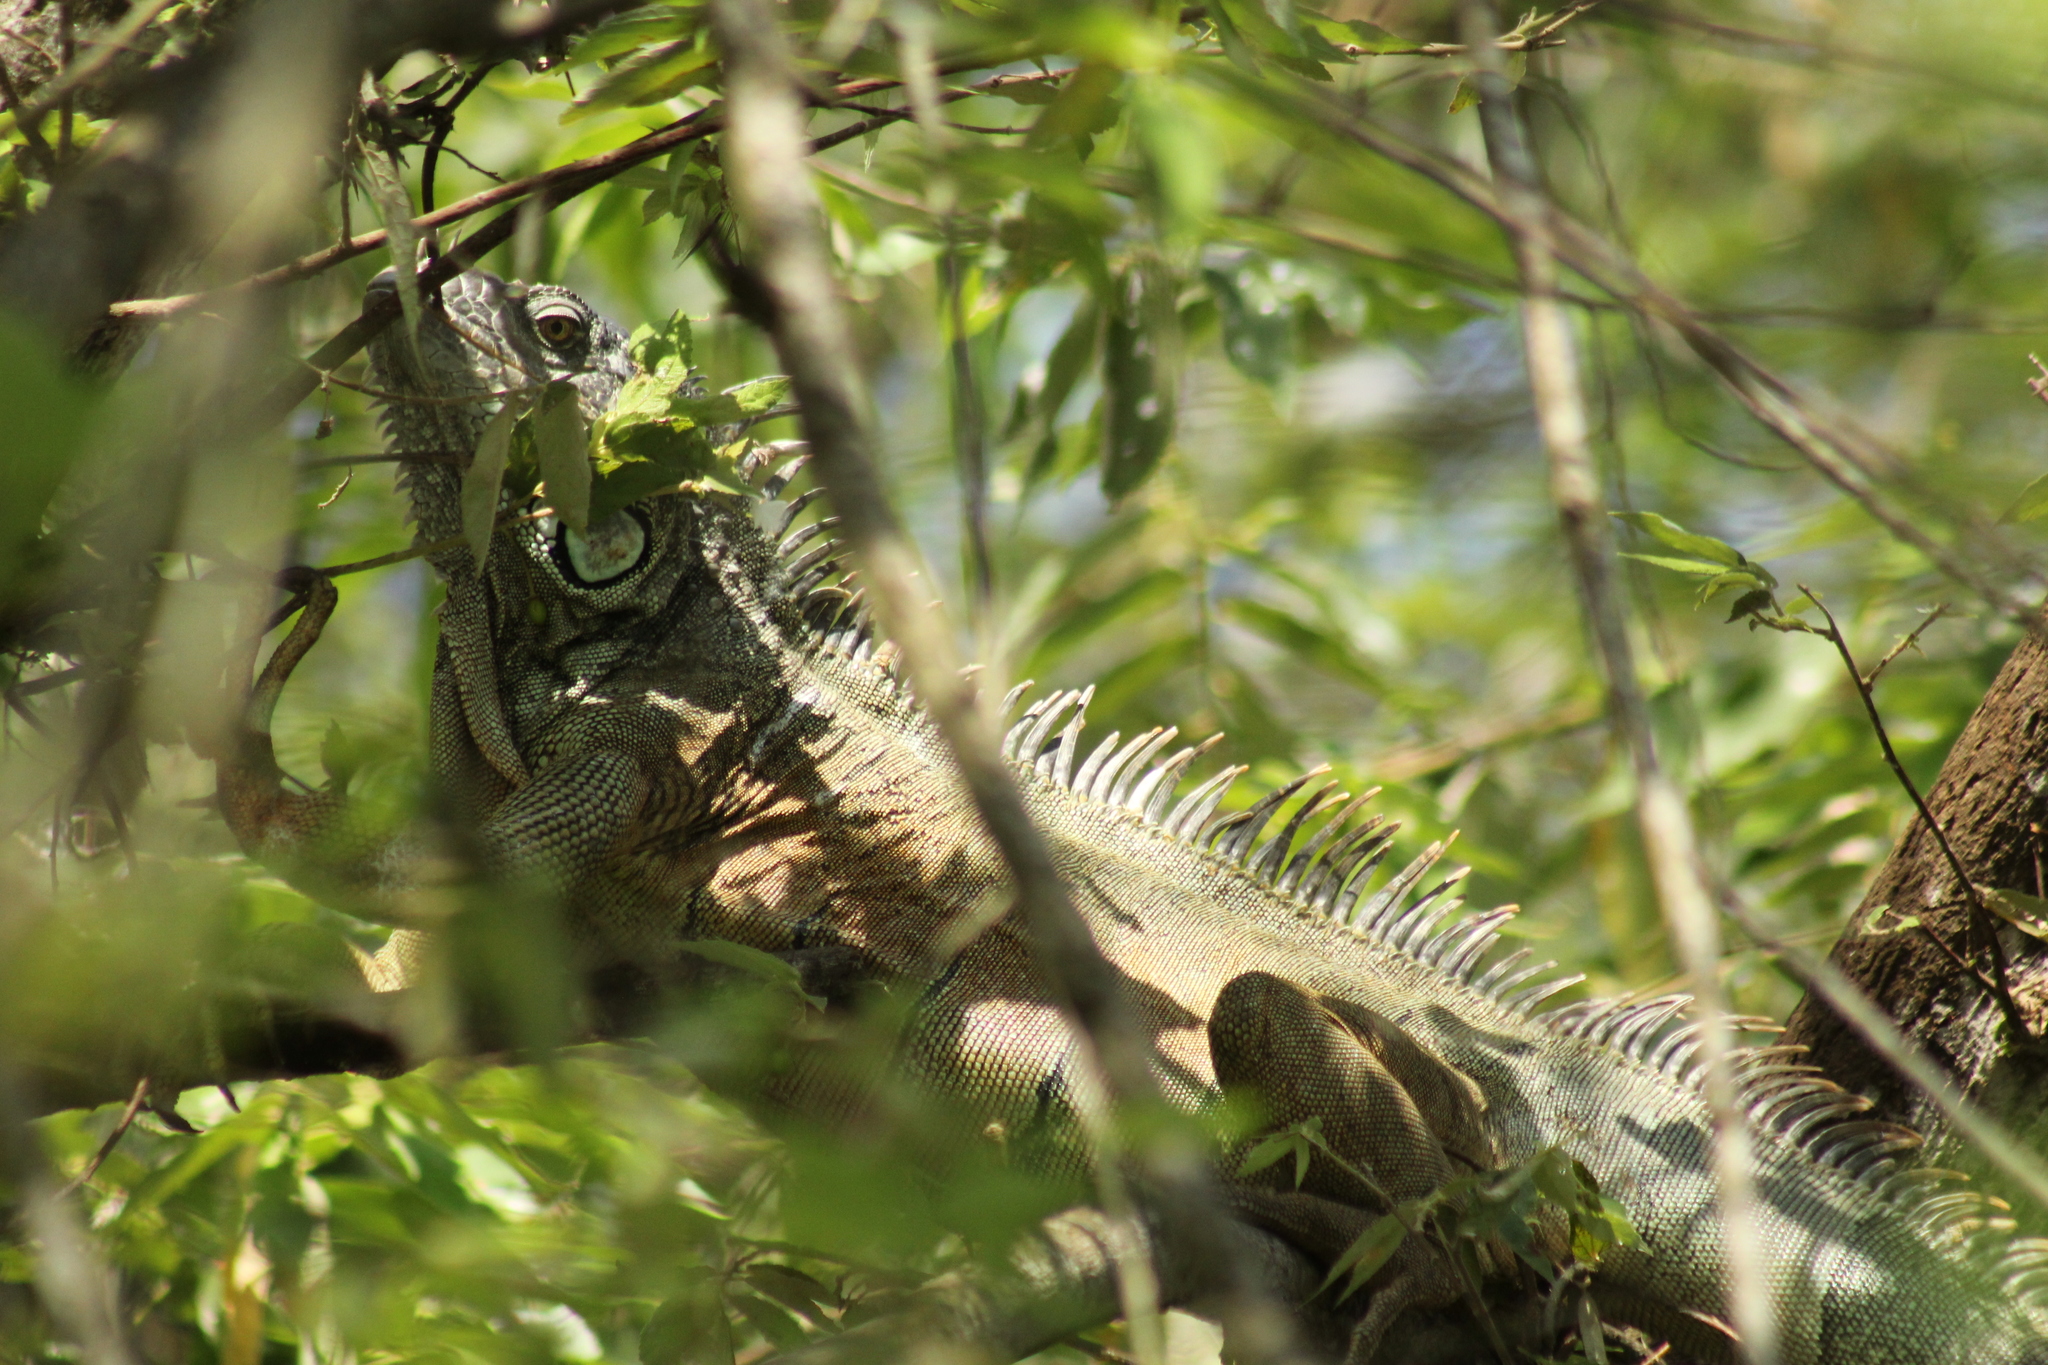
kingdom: Animalia
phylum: Chordata
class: Squamata
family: Iguanidae
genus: Iguana
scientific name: Iguana iguana
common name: Green iguana
